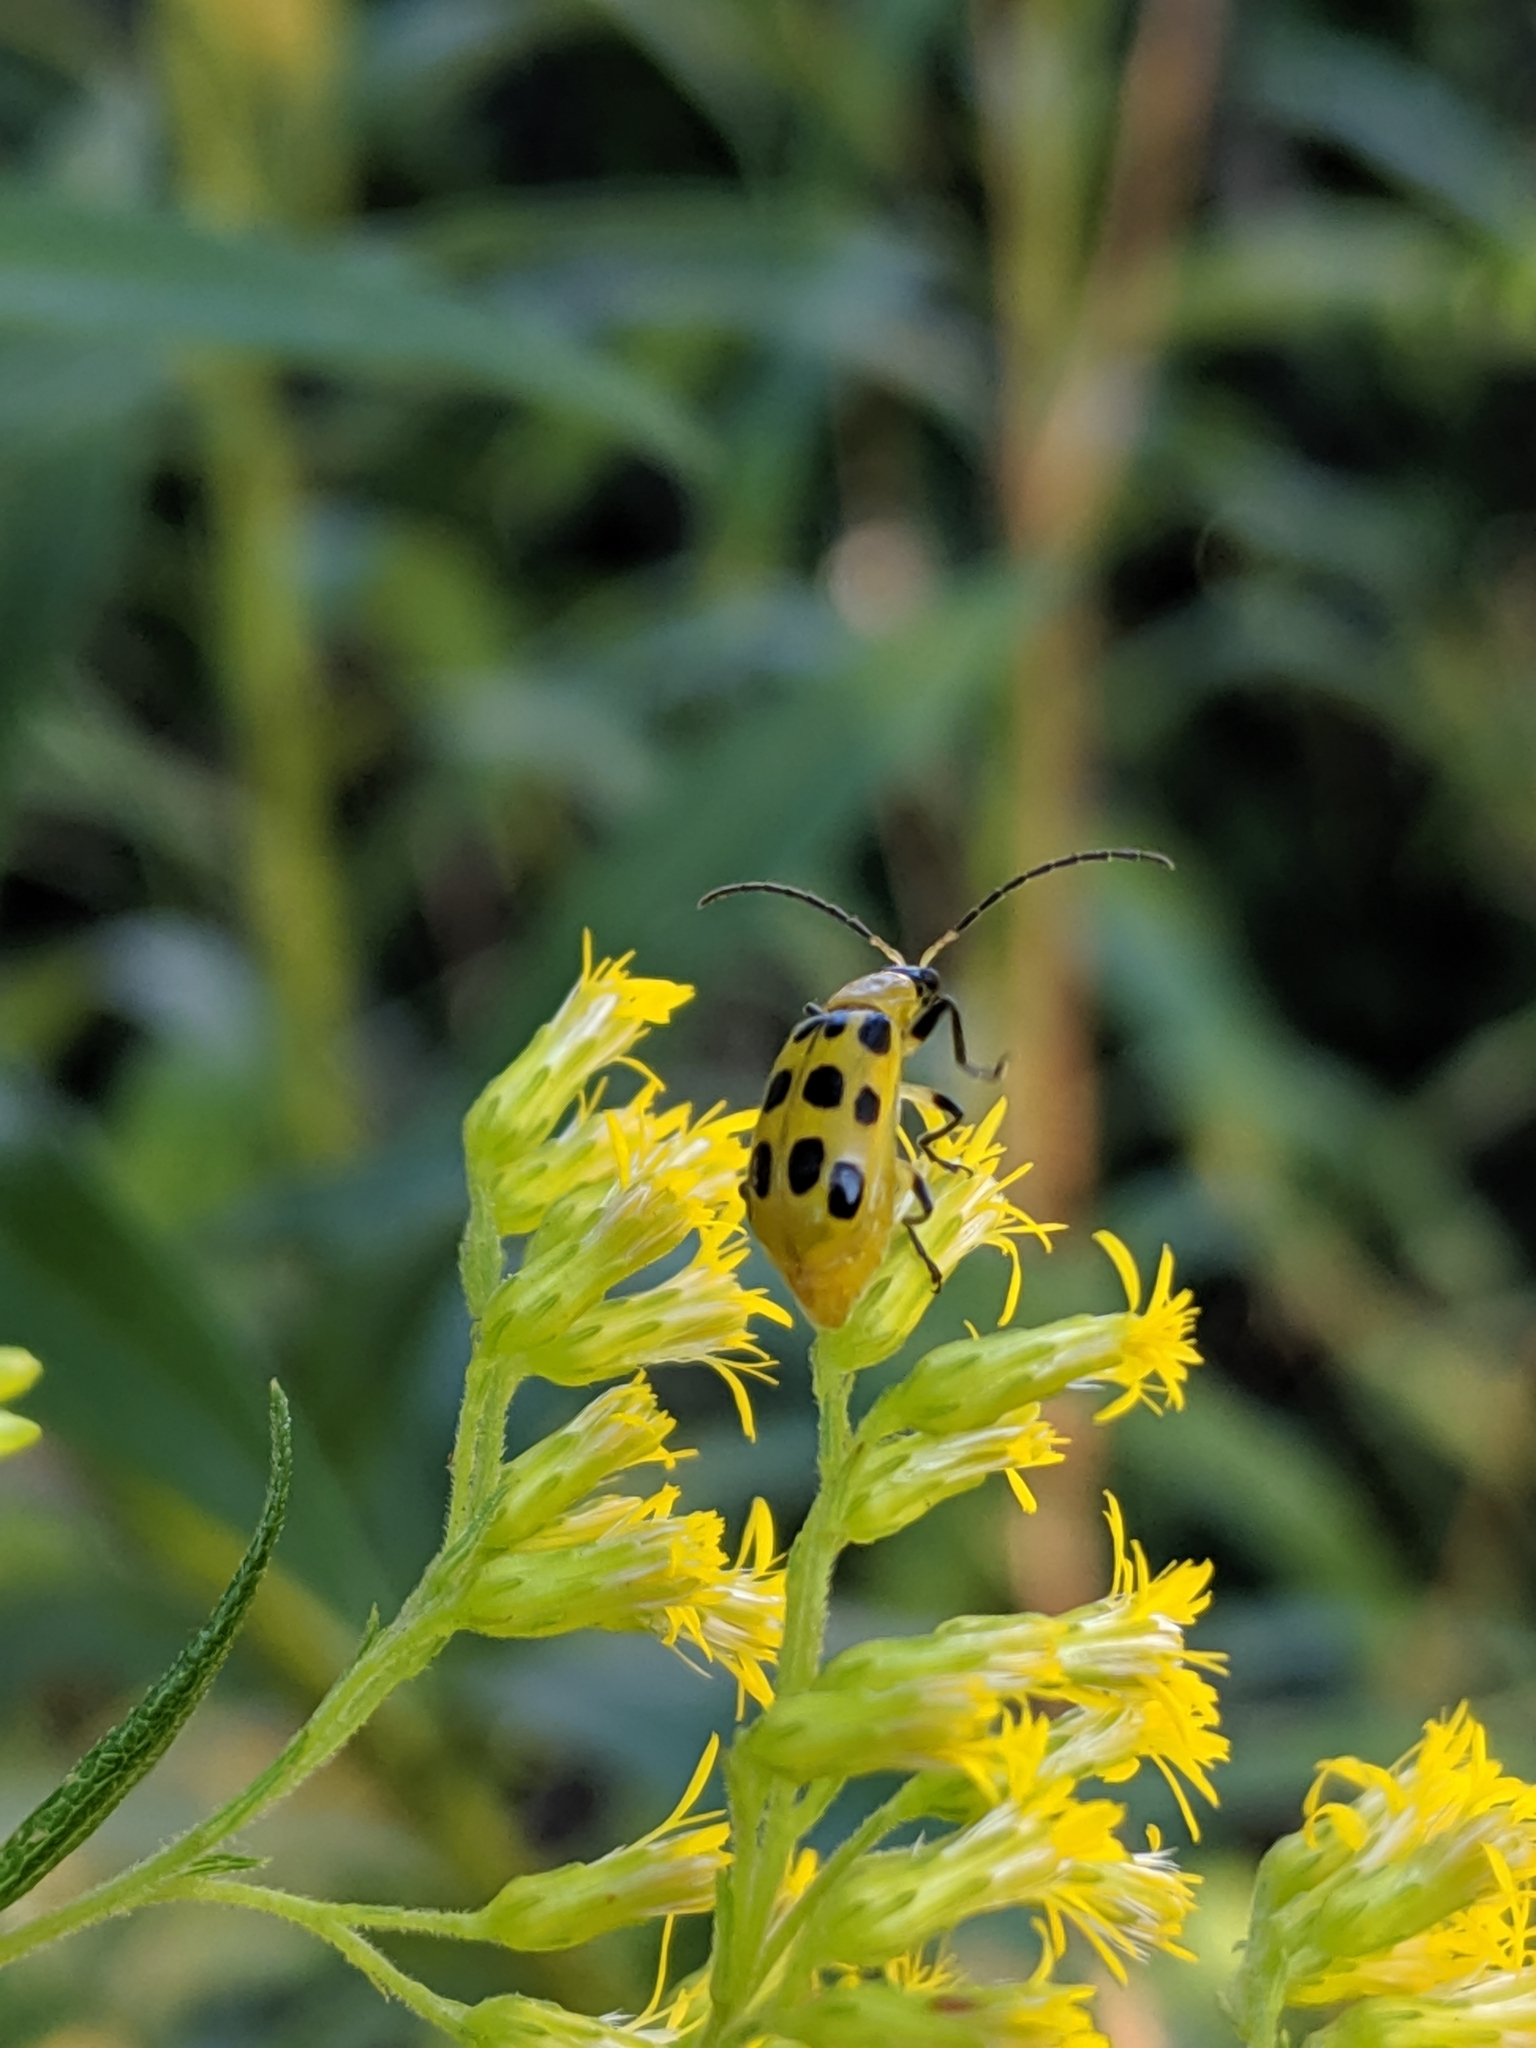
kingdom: Animalia
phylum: Arthropoda
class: Insecta
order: Coleoptera
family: Chrysomelidae
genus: Diabrotica
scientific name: Diabrotica undecimpunctata
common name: Spotted cucumber beetle
